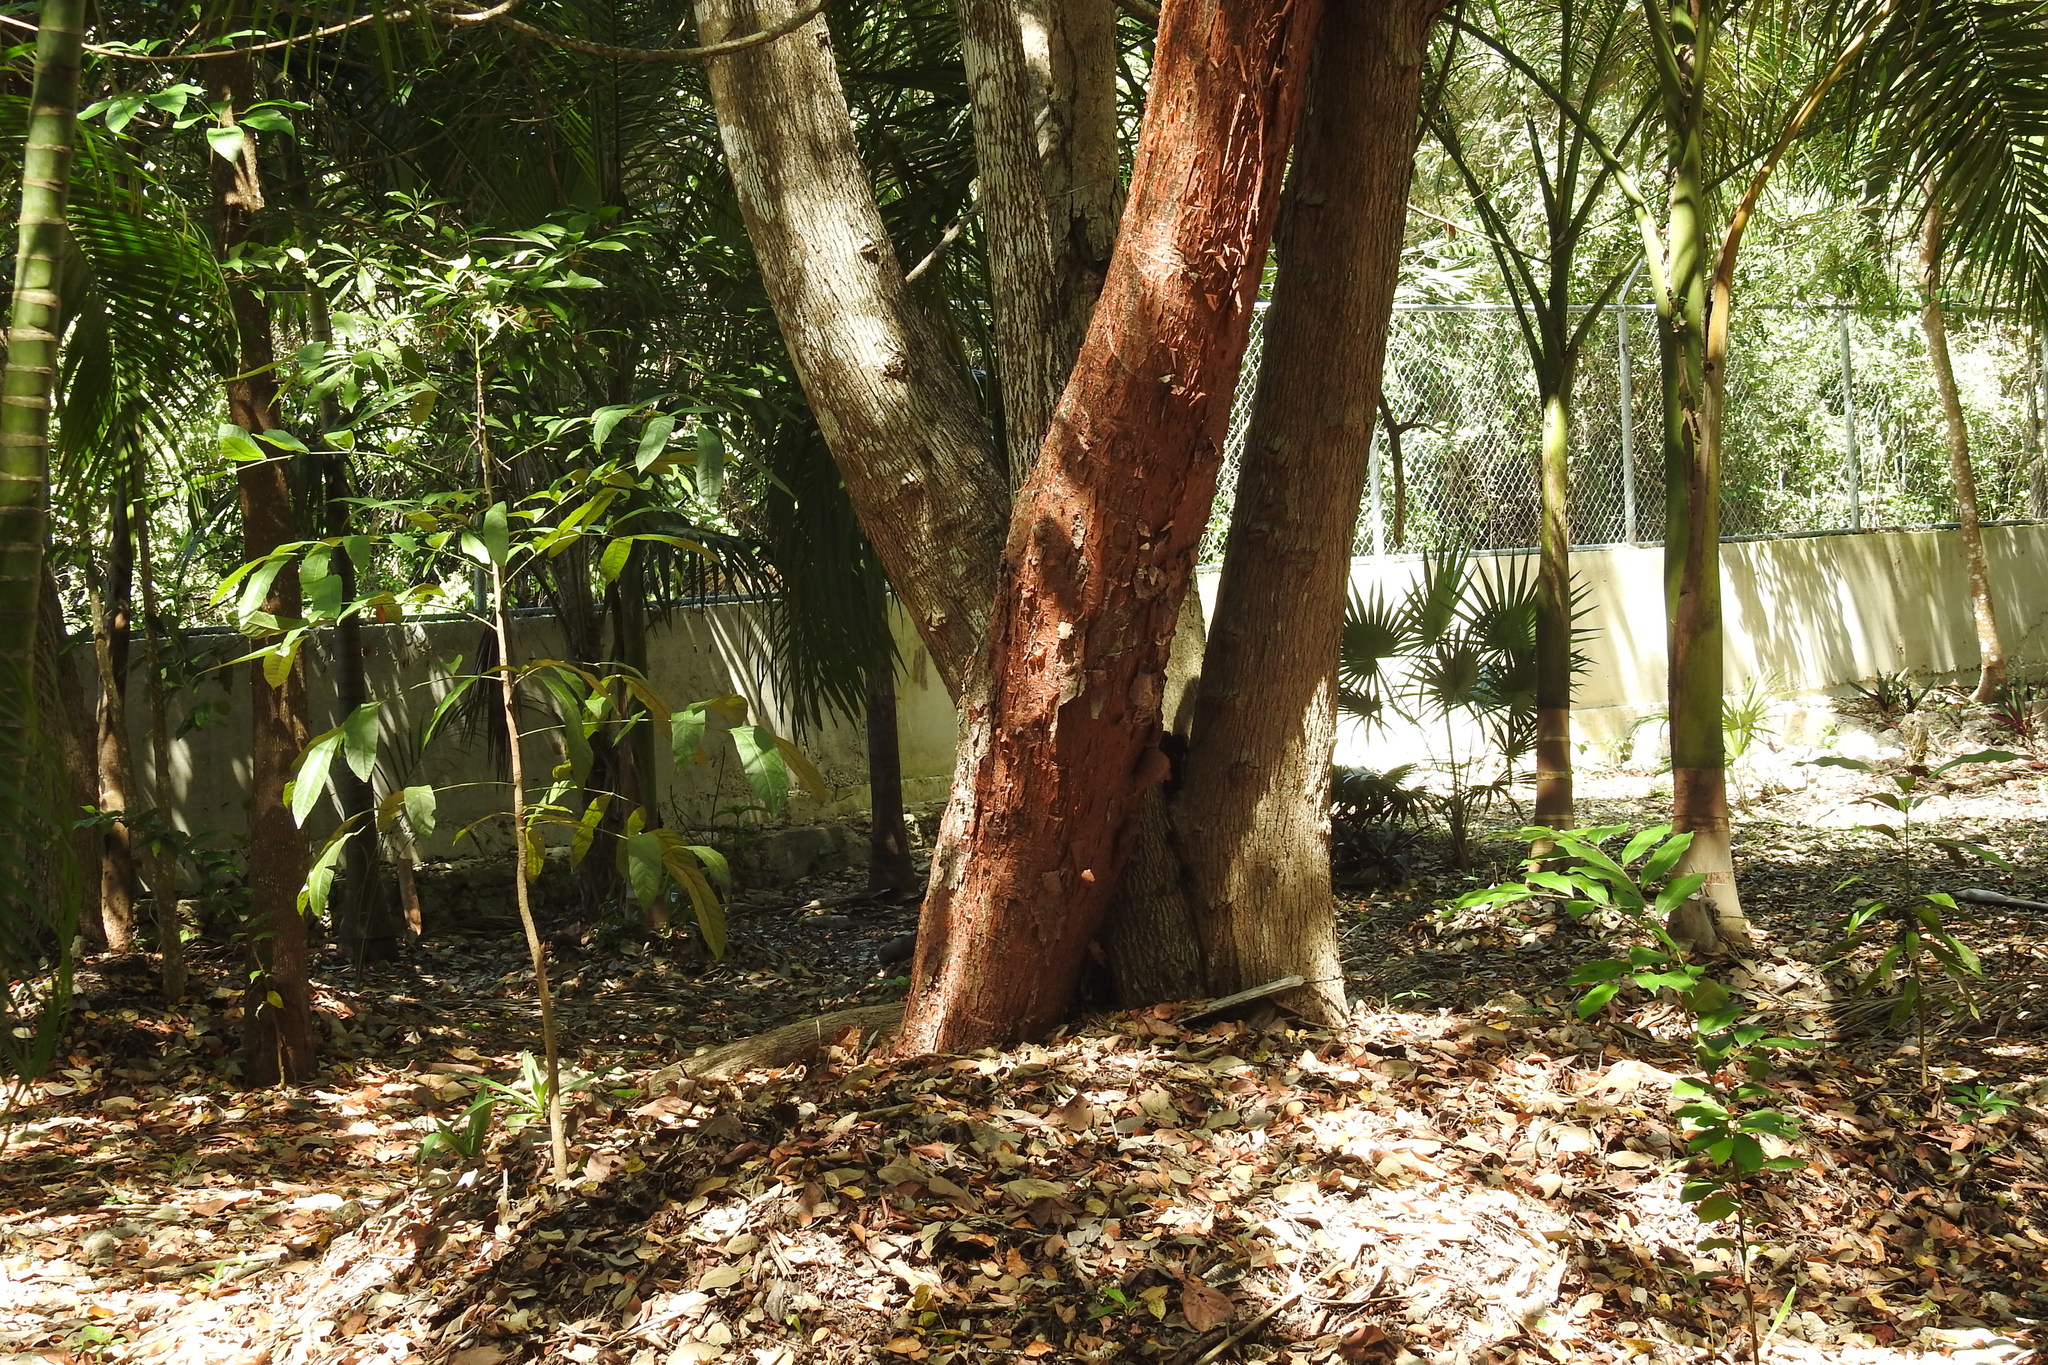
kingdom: Plantae
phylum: Tracheophyta
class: Magnoliopsida
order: Sapindales
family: Burseraceae
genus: Bursera
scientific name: Bursera simaruba
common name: Turpentine tree
